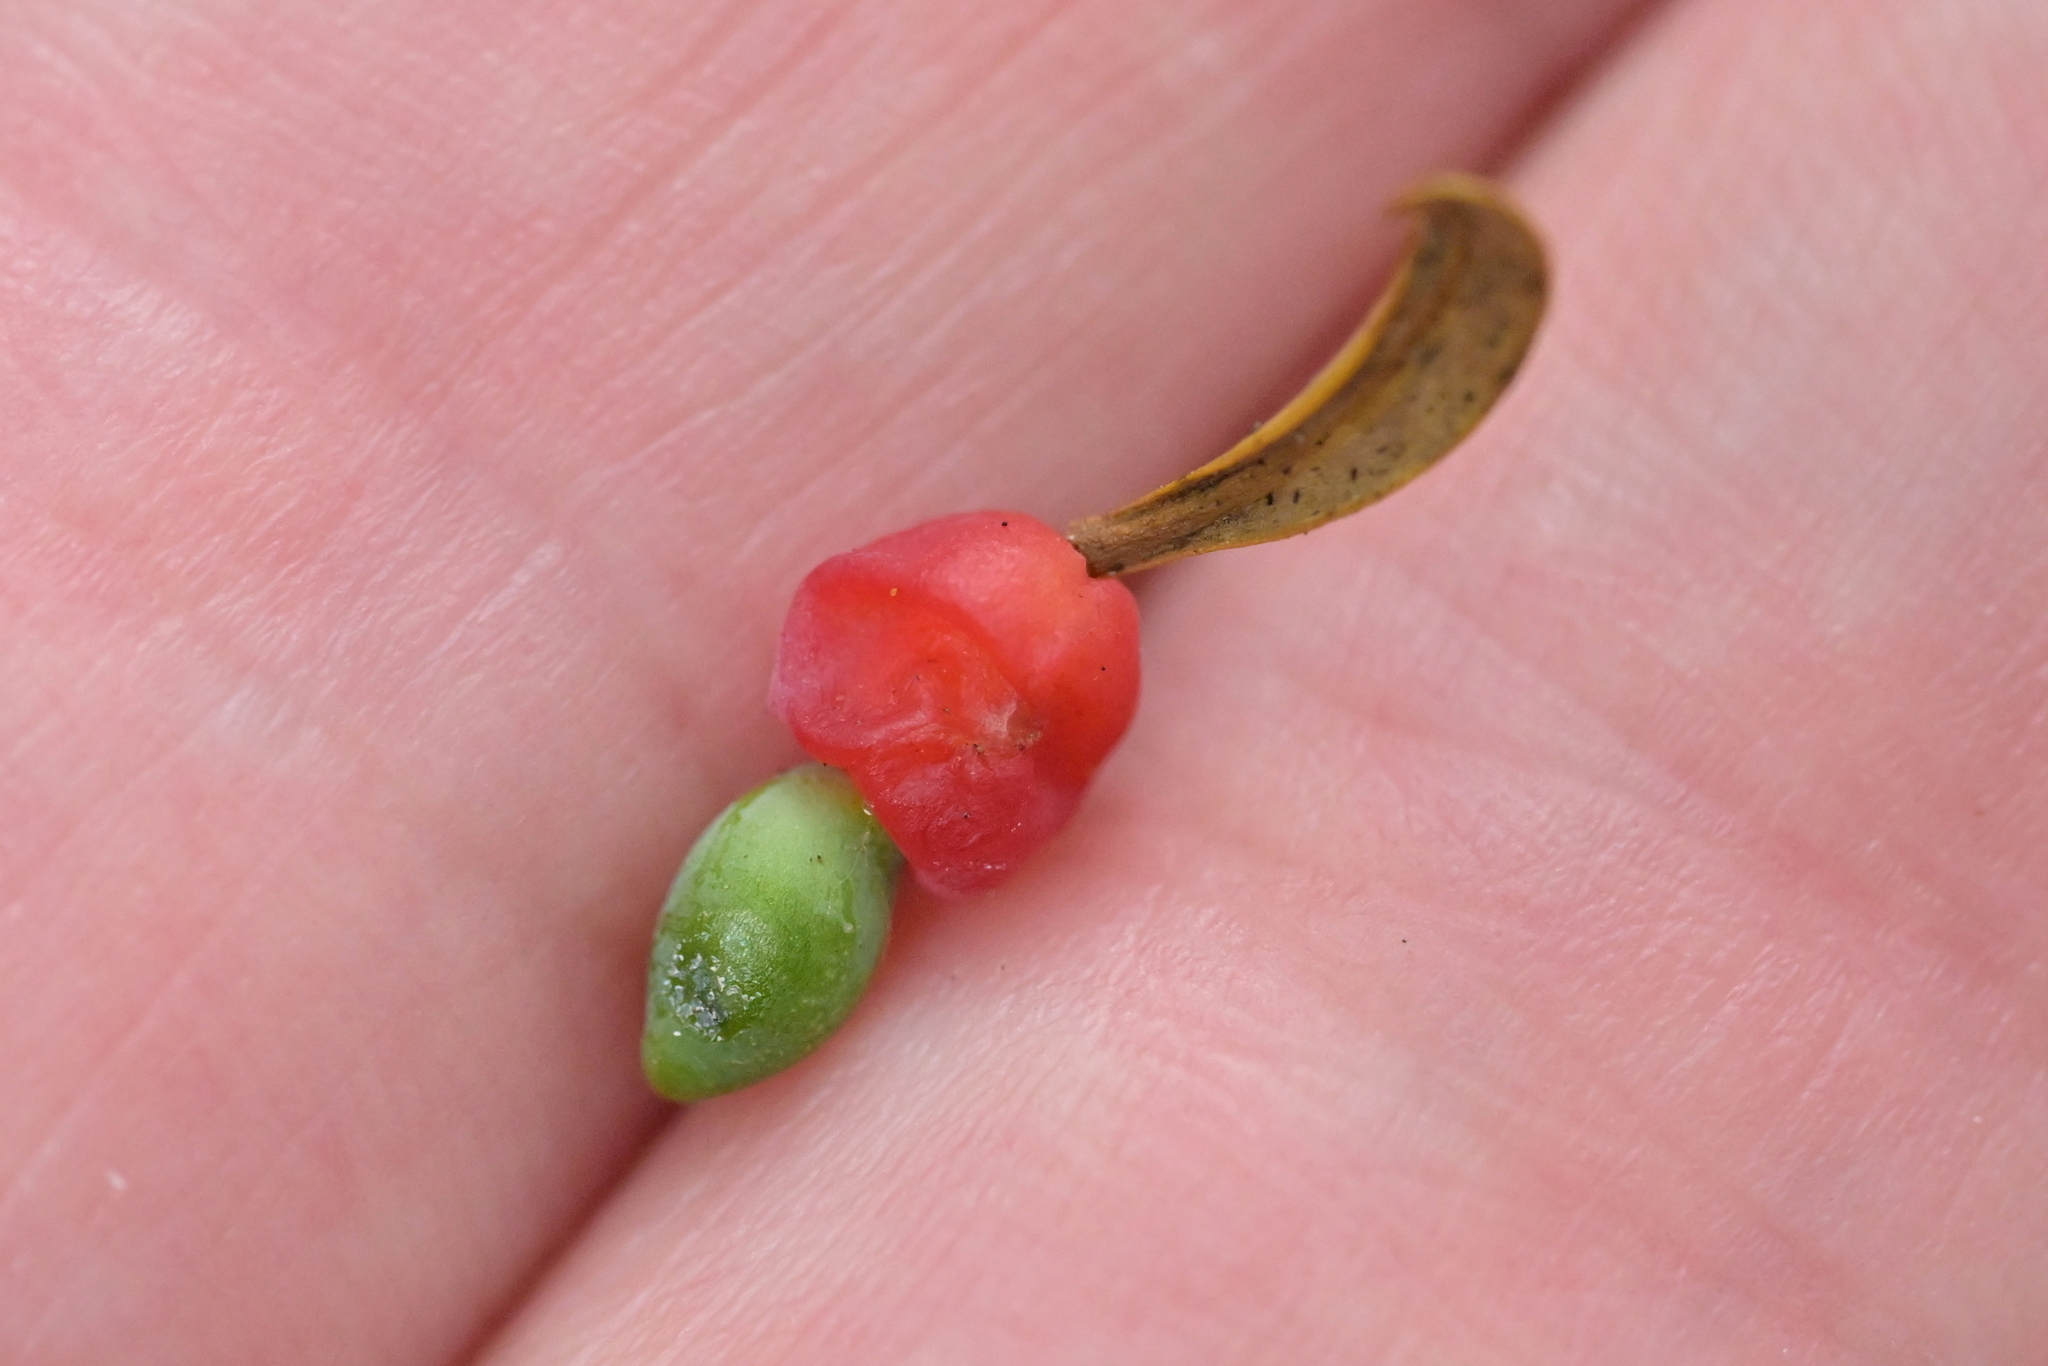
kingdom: Plantae
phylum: Tracheophyta
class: Pinopsida
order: Pinales
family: Podocarpaceae
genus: Podocarpus
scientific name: Podocarpus totara
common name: Totara
